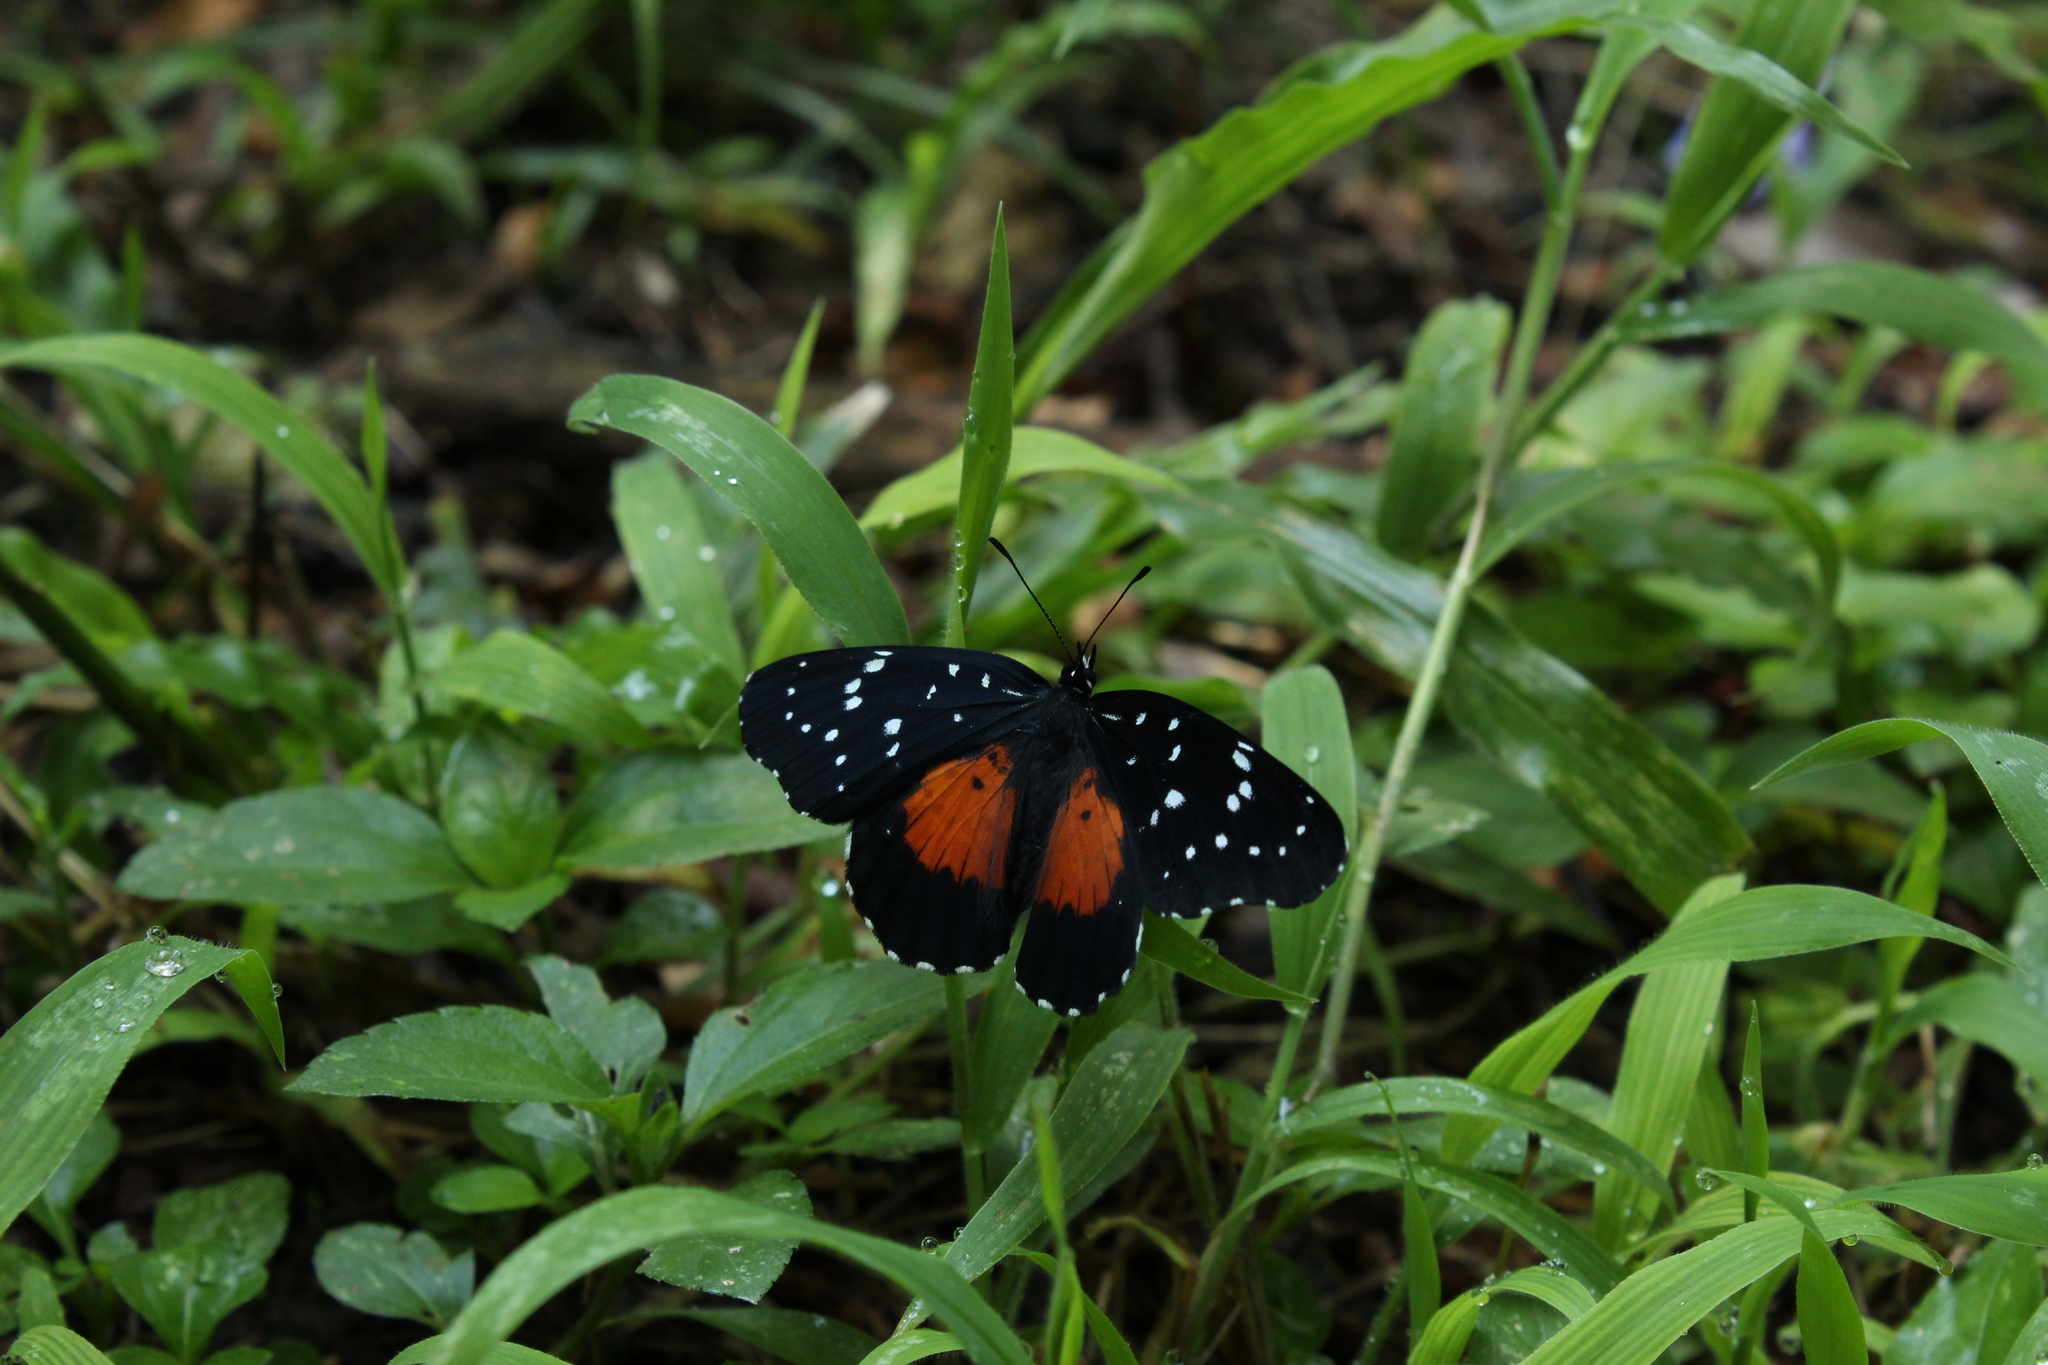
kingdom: Animalia
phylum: Arthropoda
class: Insecta
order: Lepidoptera
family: Nymphalidae
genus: Chlosyne
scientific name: Chlosyne janais
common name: Crimson patch
